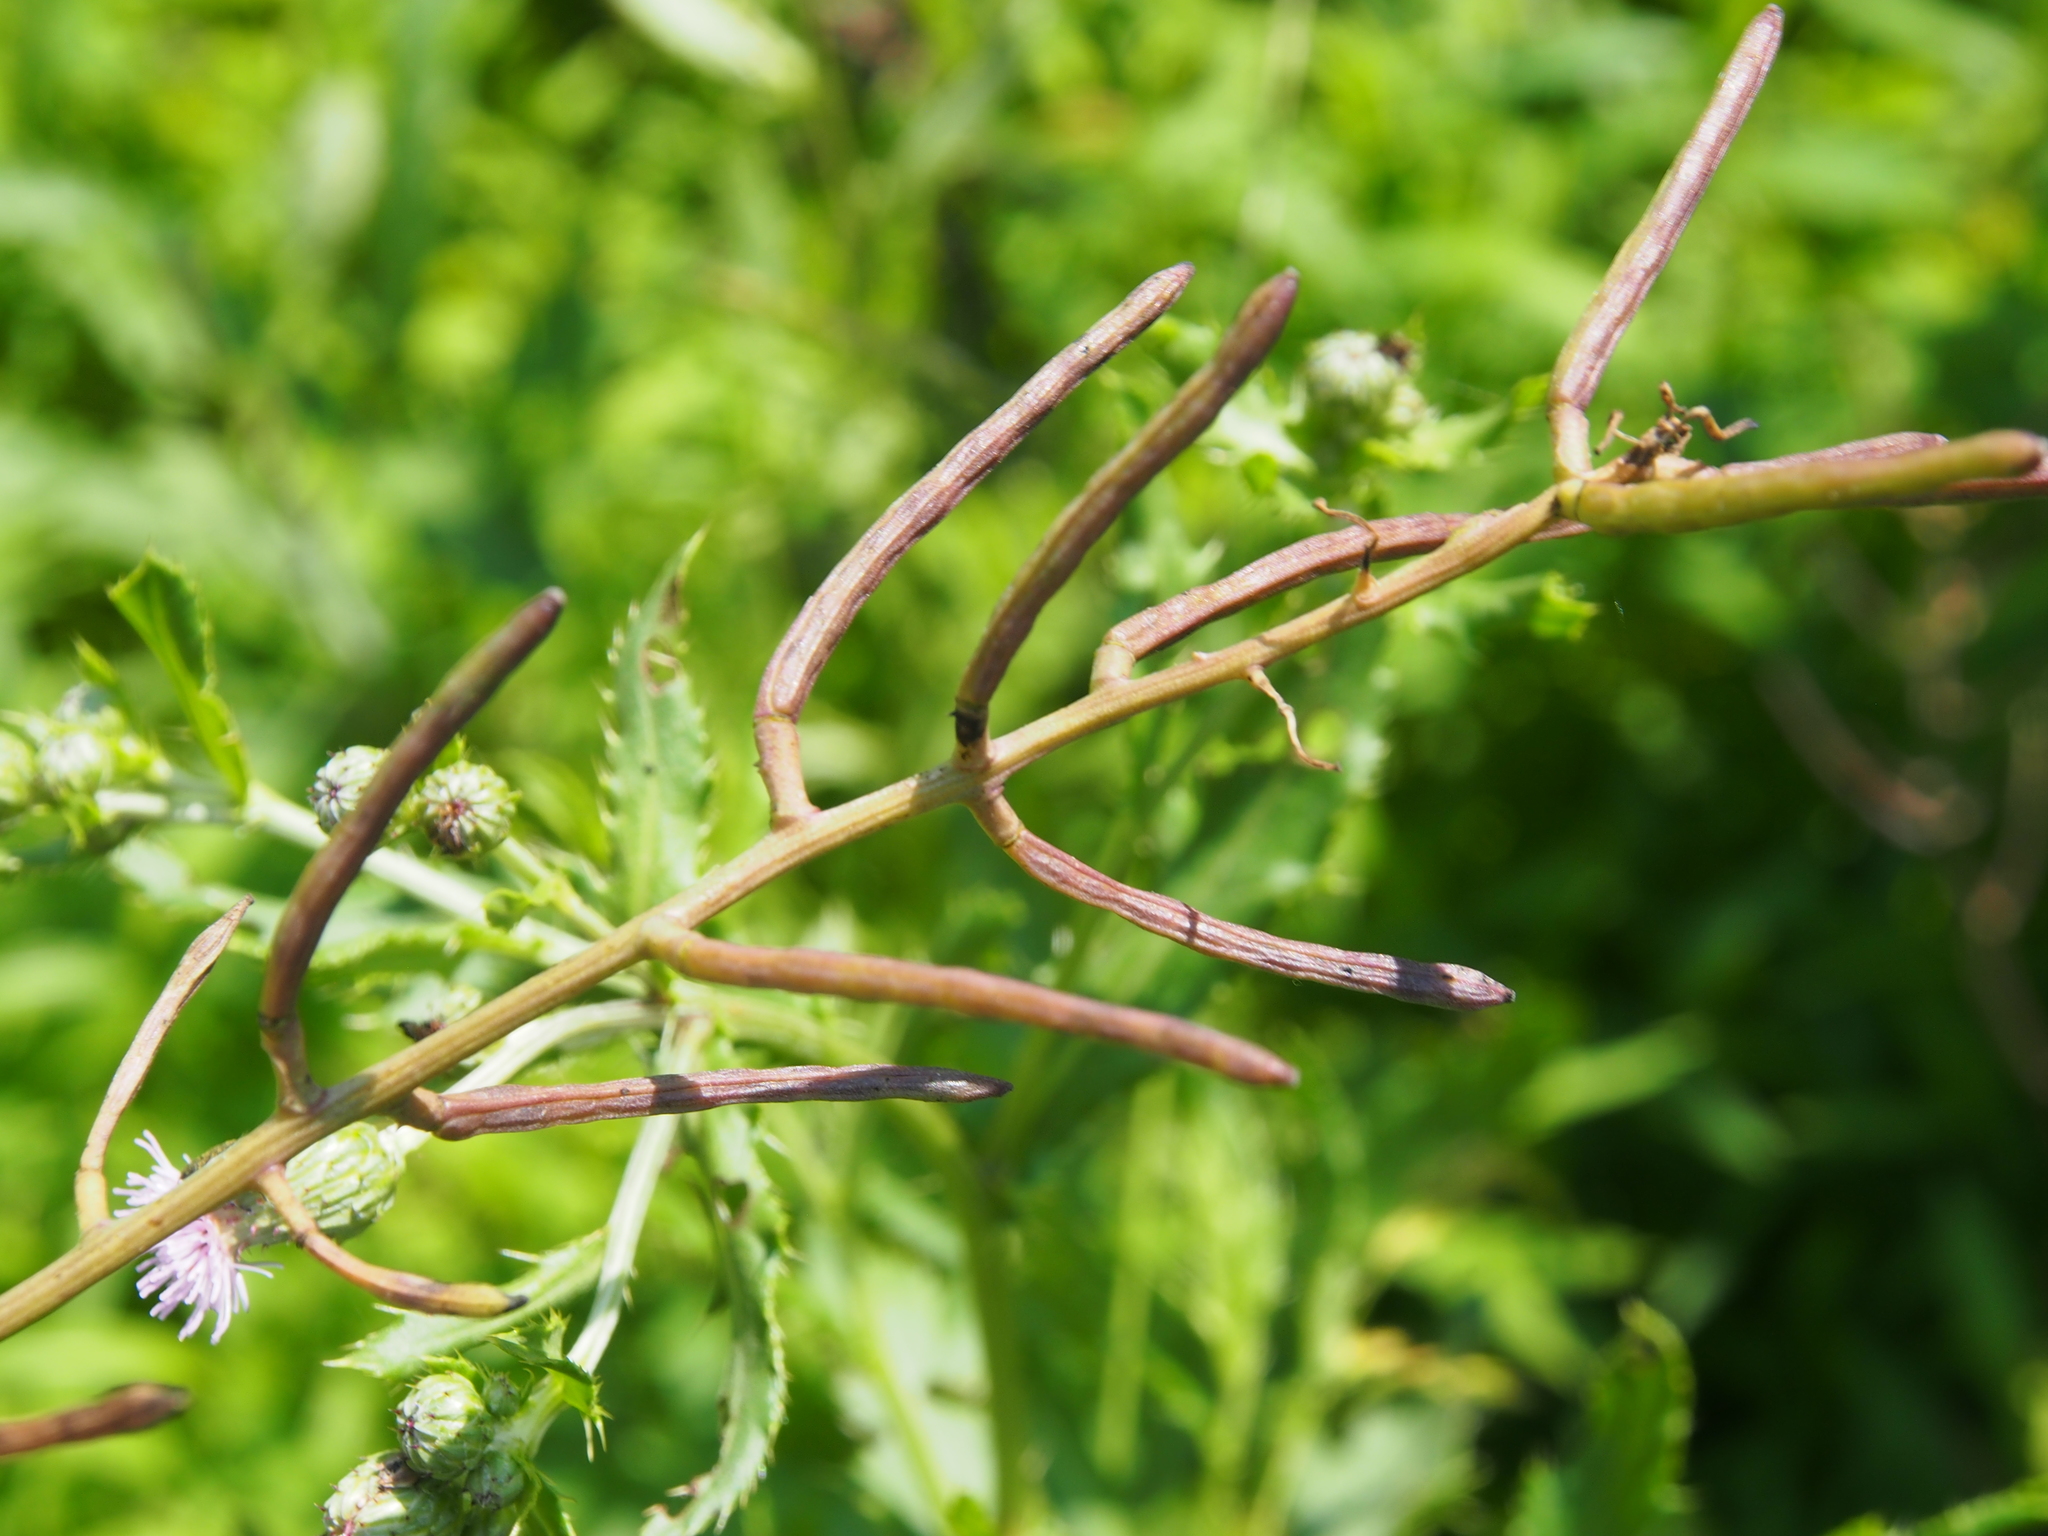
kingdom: Plantae
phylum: Tracheophyta
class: Magnoliopsida
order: Brassicales
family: Brassicaceae
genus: Alliaria
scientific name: Alliaria petiolata
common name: Garlic mustard
